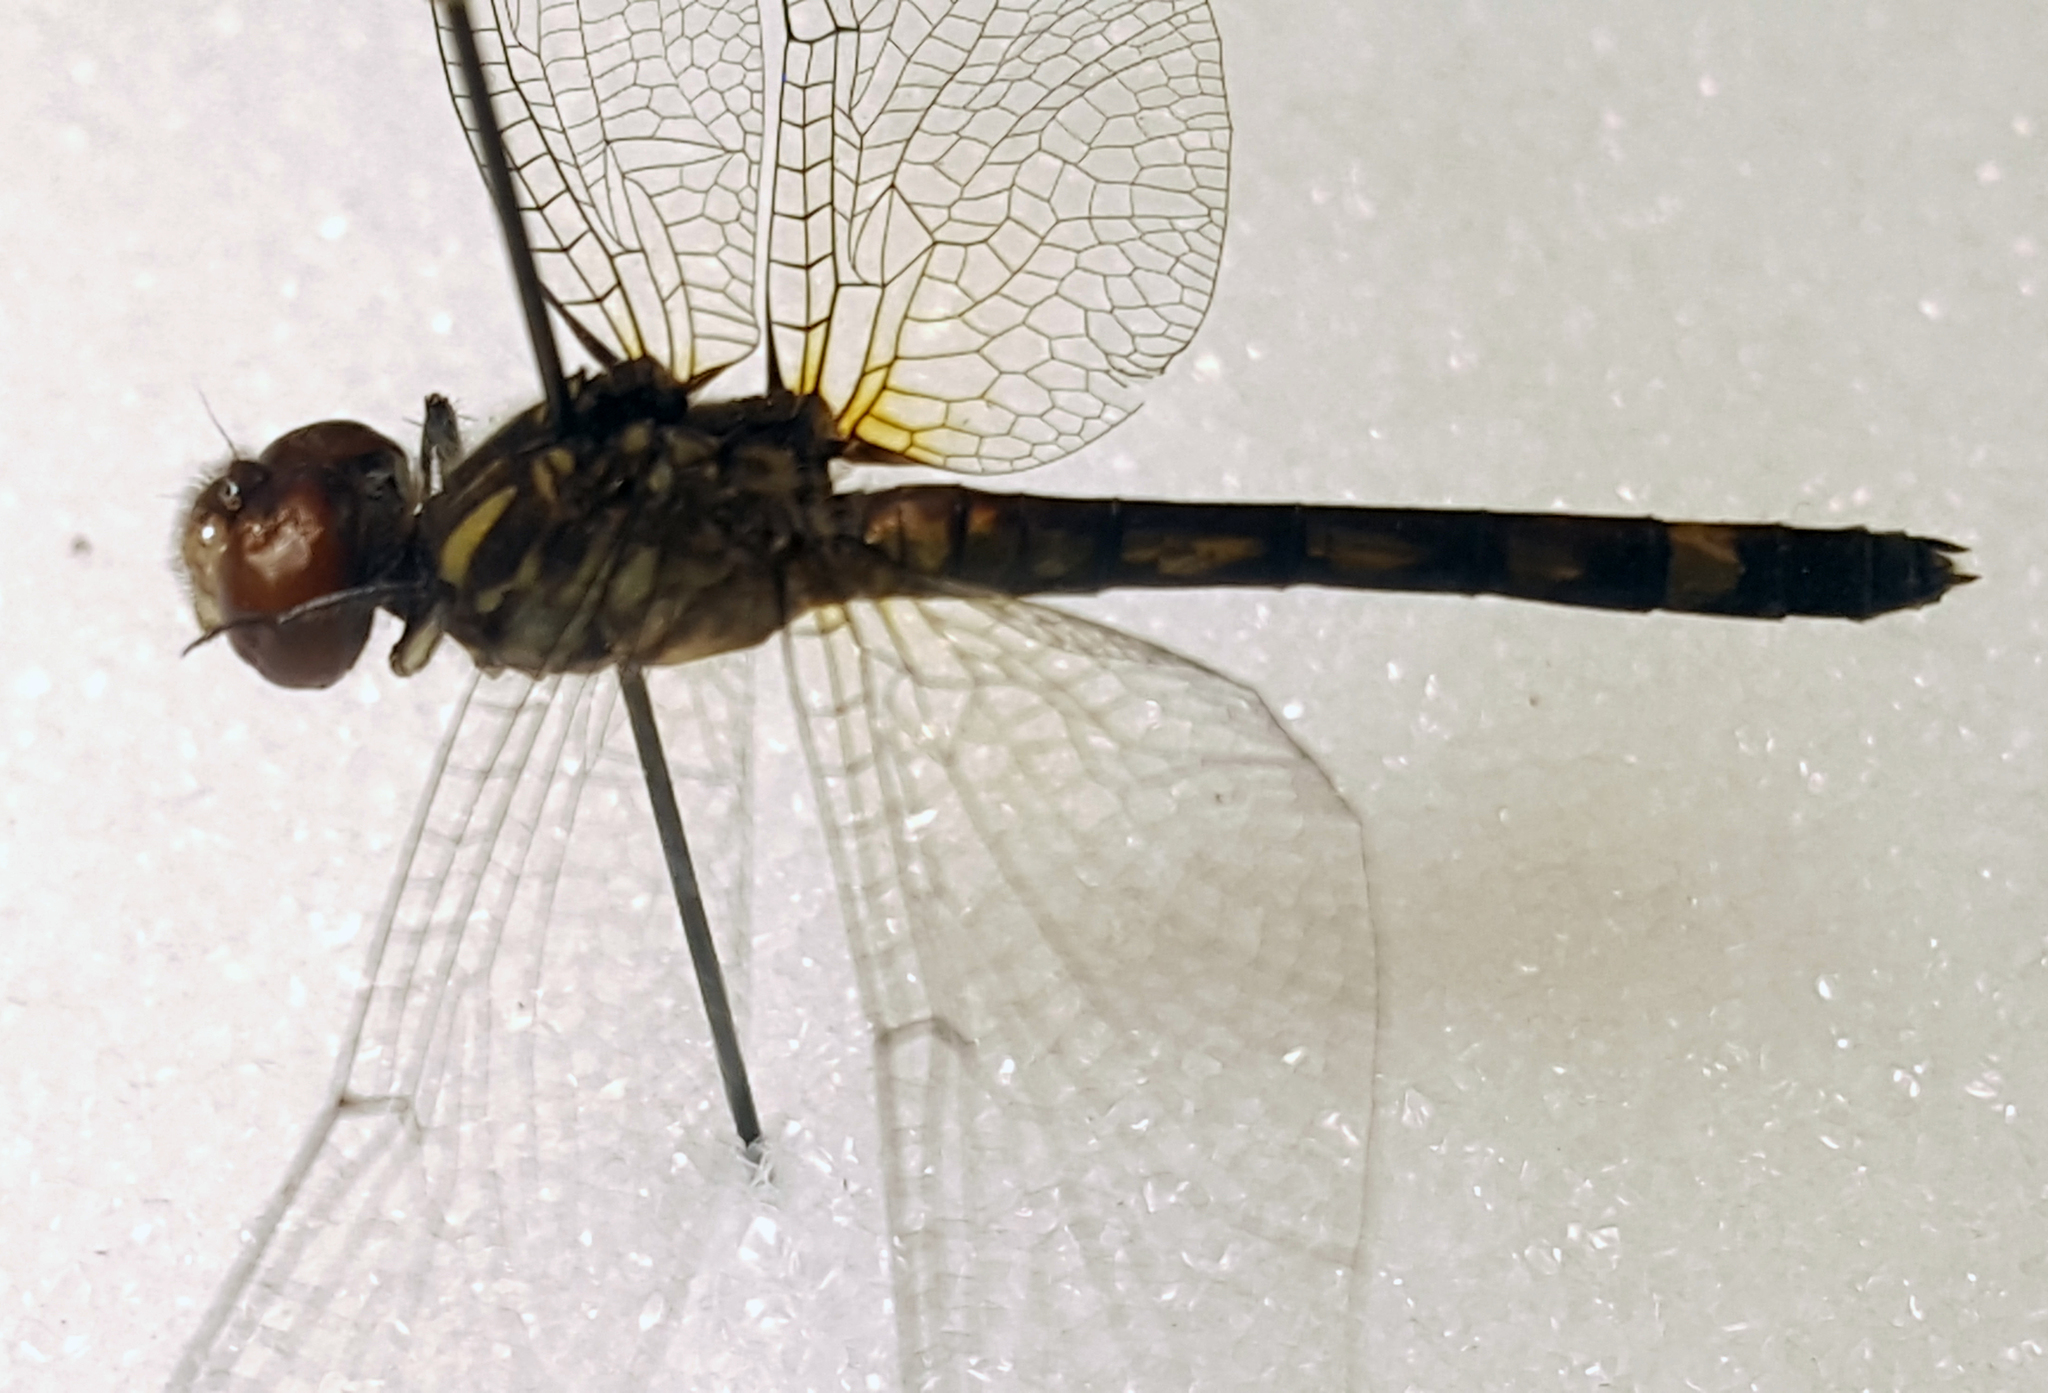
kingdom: Animalia
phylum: Arthropoda
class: Insecta
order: Odonata
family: Libellulidae
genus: Micrathyria
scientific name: Micrathyria hagenii
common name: Thornbush dasher
